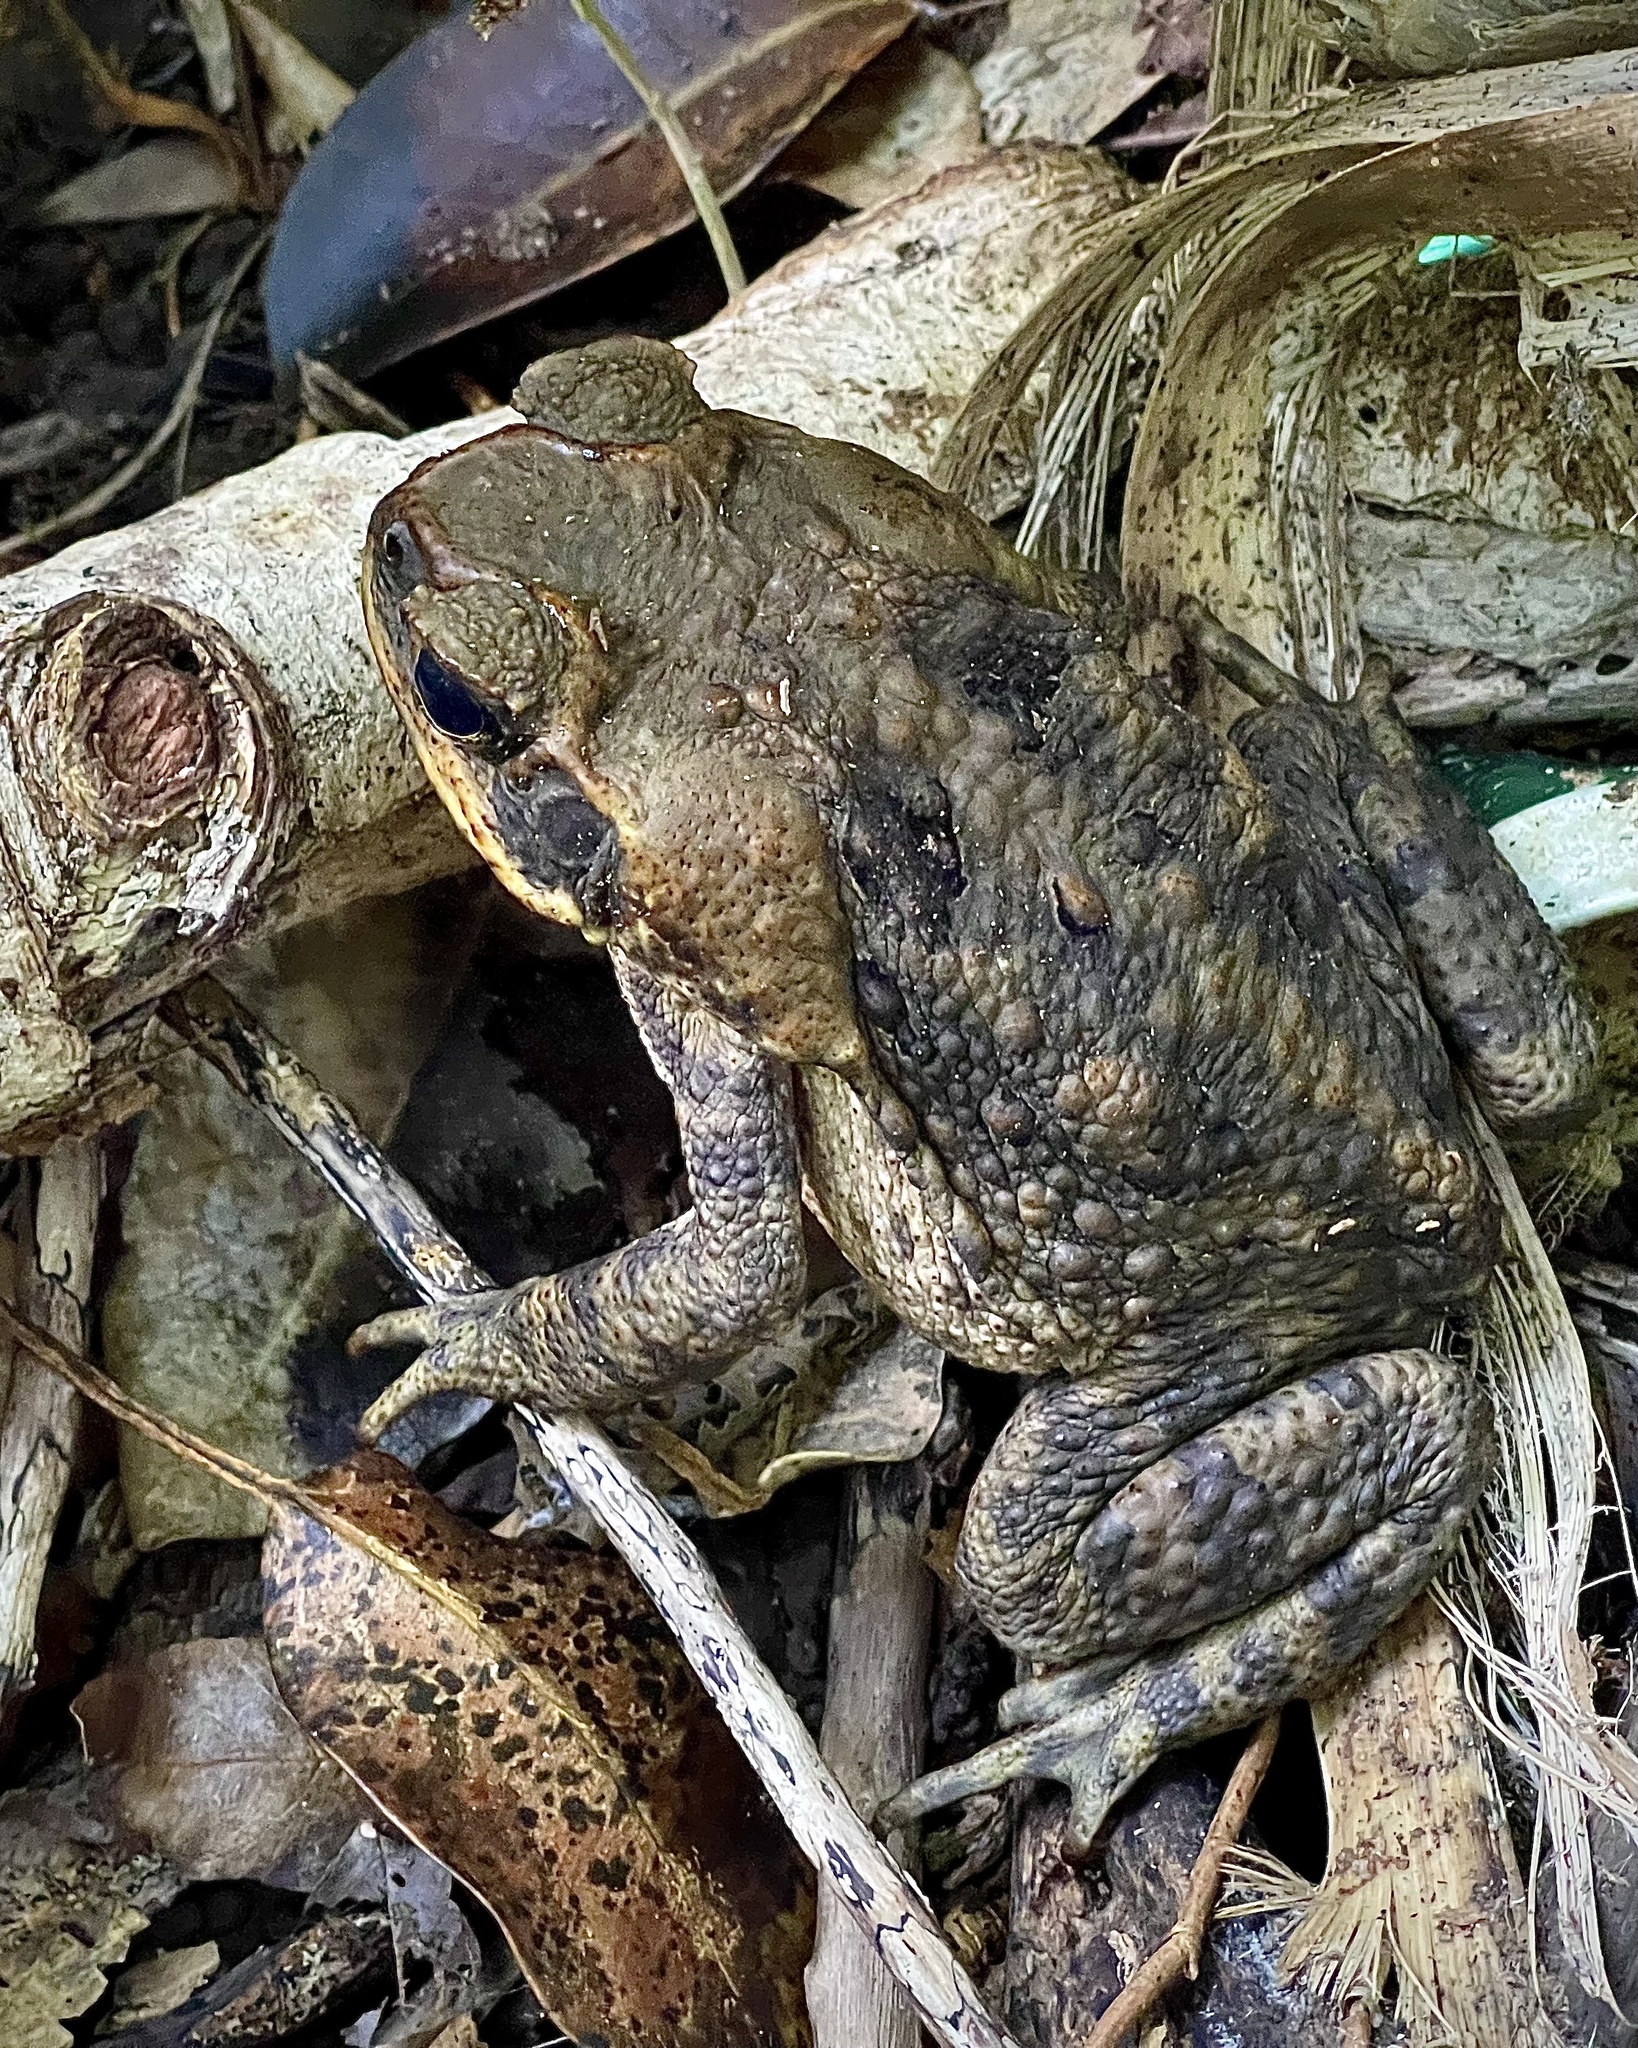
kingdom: Animalia
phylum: Chordata
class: Amphibia
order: Anura
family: Bufonidae
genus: Rhinella
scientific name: Rhinella marina
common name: Cane toad
